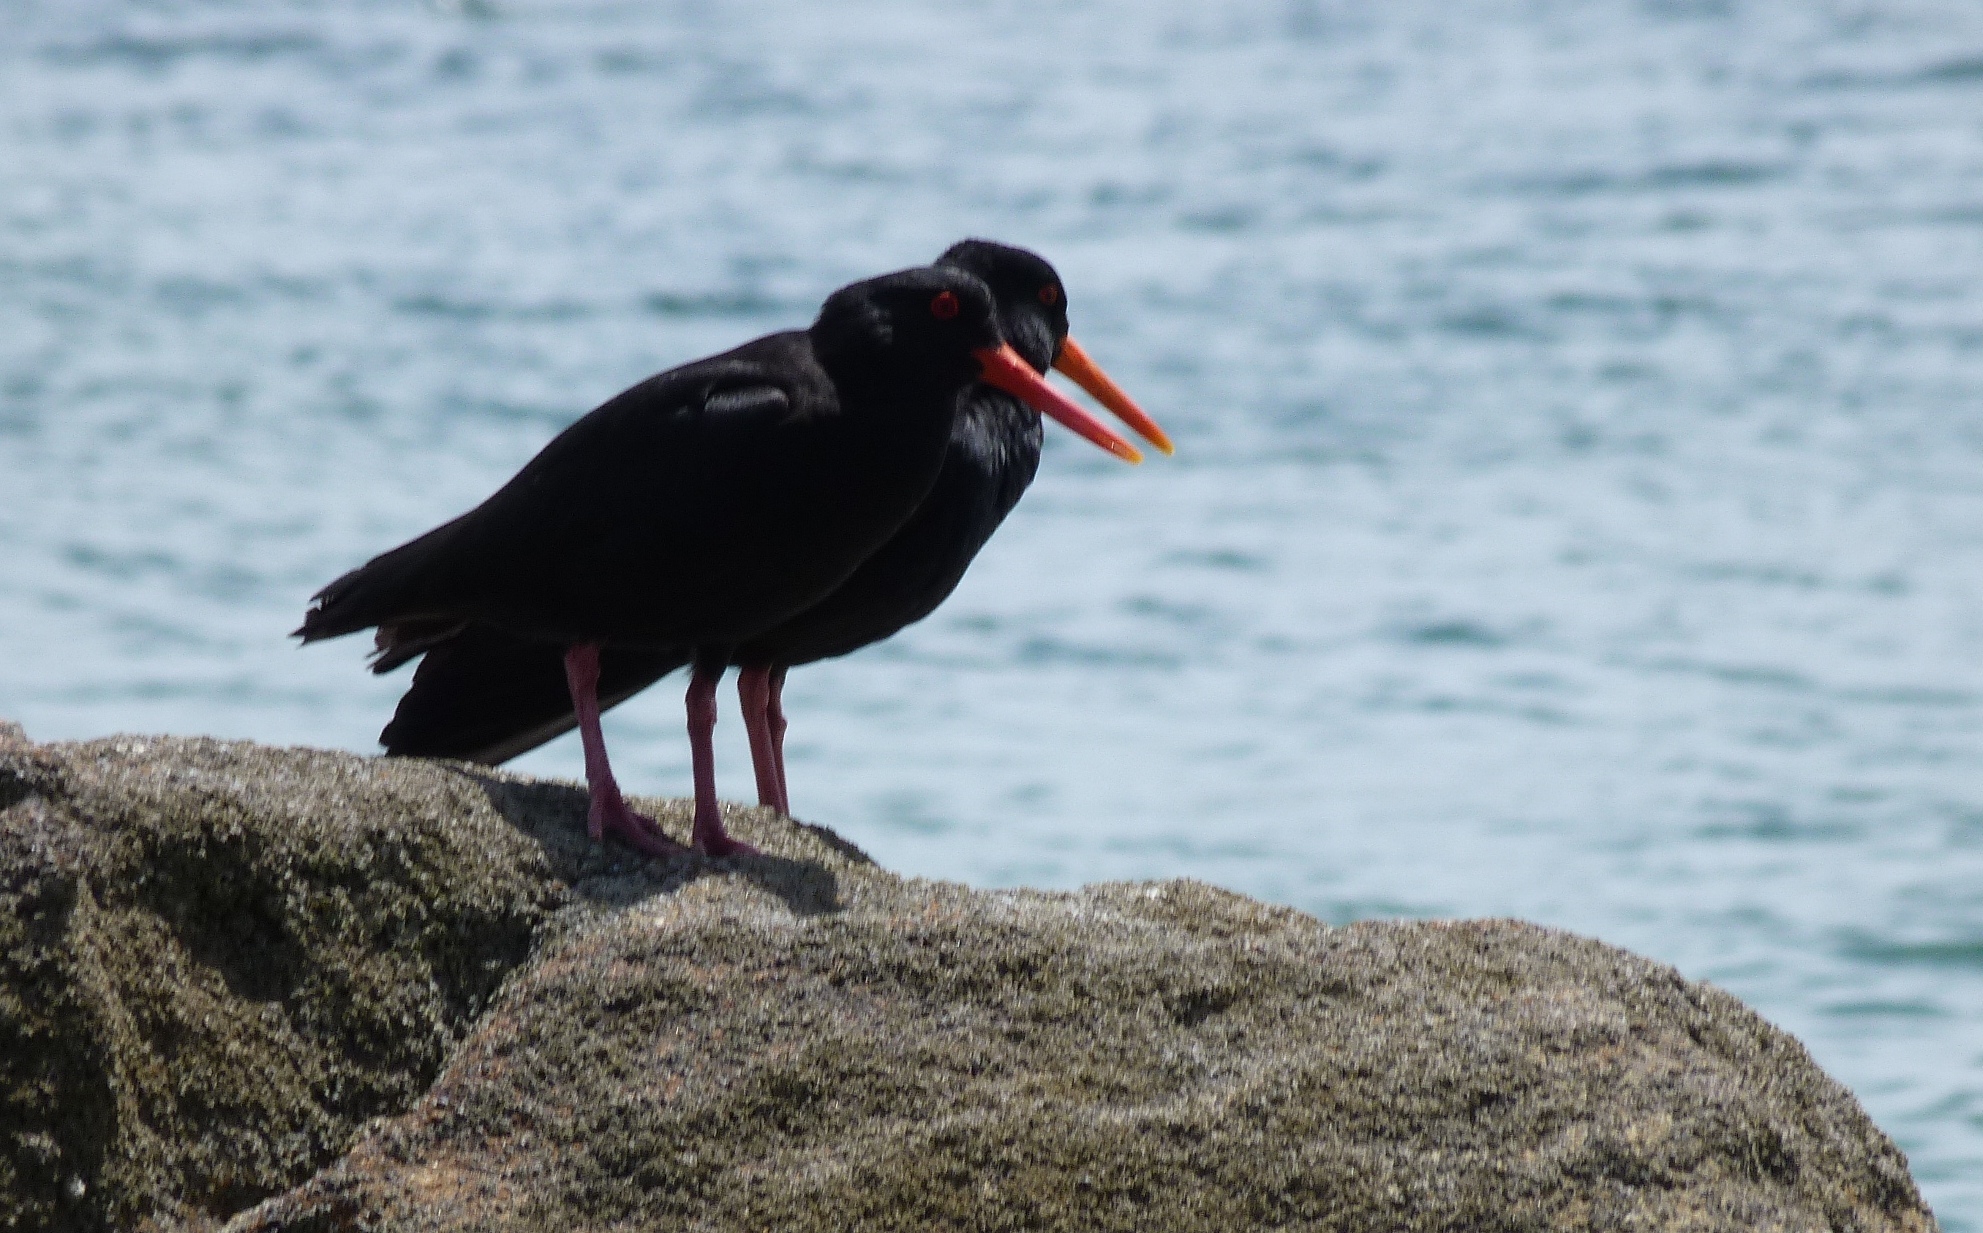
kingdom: Animalia
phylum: Chordata
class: Aves
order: Charadriiformes
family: Haematopodidae
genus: Haematopus
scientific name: Haematopus unicolor
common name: Variable oystercatcher
